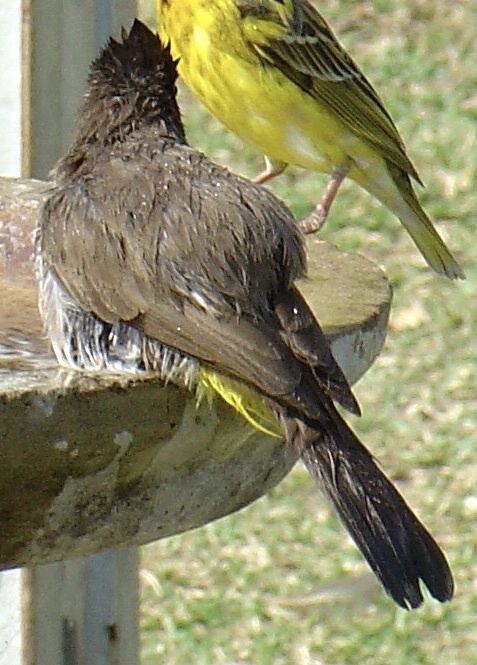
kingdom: Animalia
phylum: Chordata
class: Aves
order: Passeriformes
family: Pycnonotidae
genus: Pycnonotus
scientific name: Pycnonotus barbatus
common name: Common bulbul
